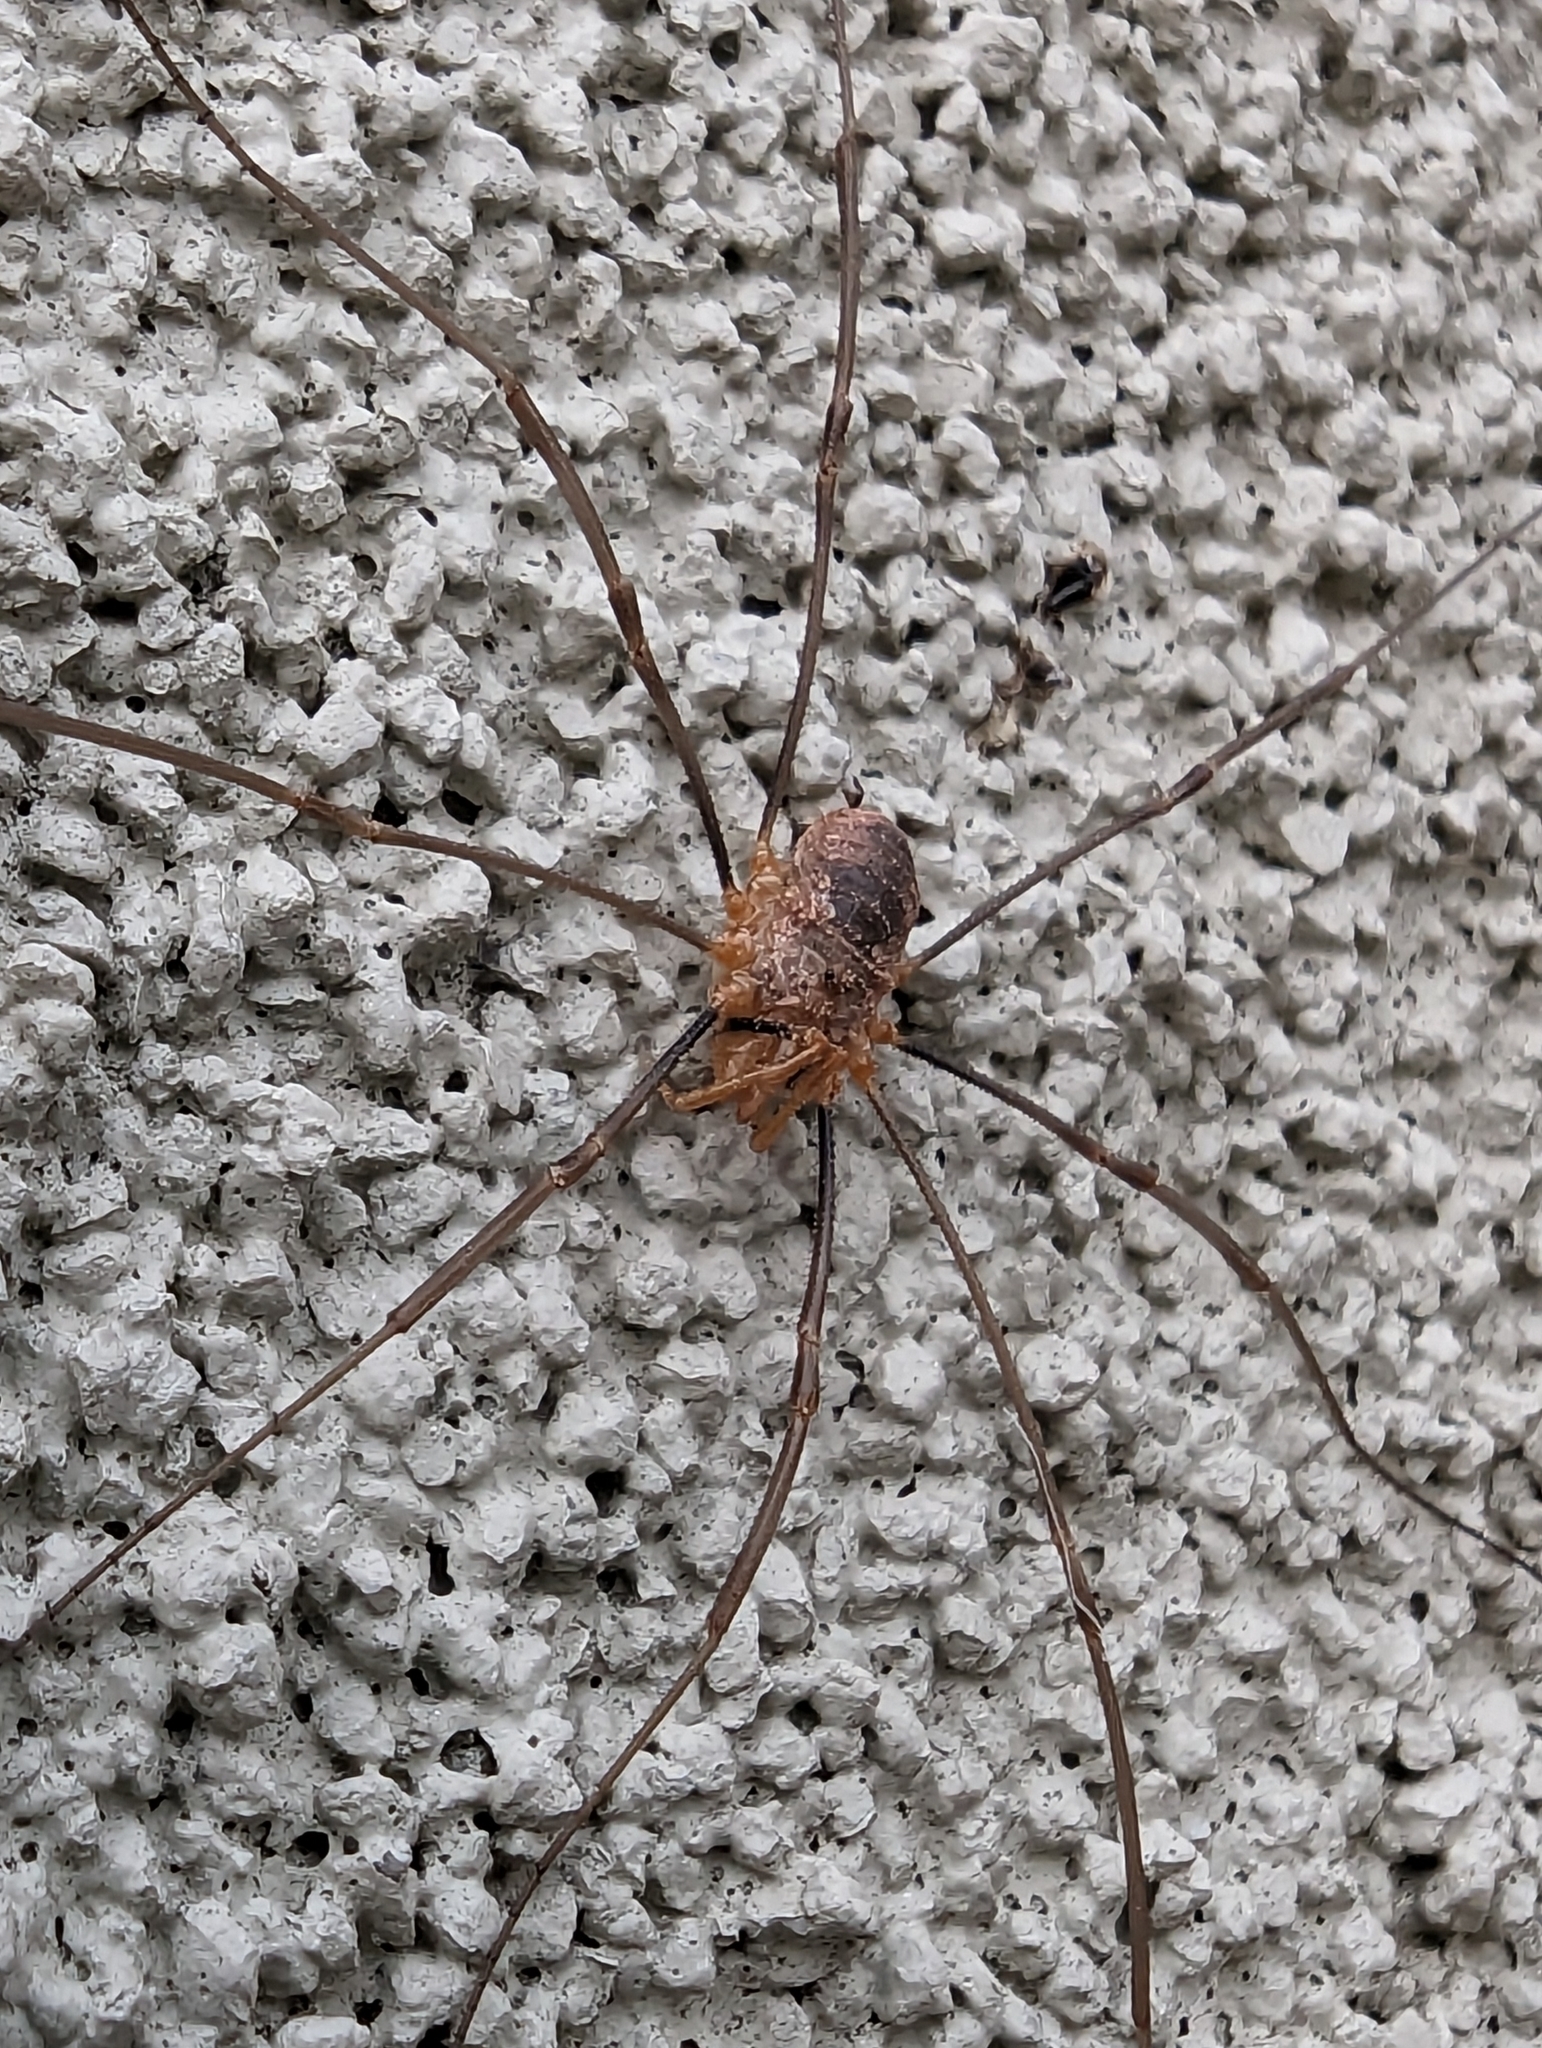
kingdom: Animalia
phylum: Arthropoda
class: Arachnida
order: Opiliones
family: Phalangiidae
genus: Phalangium
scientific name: Phalangium opilio
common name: Daddy longleg
